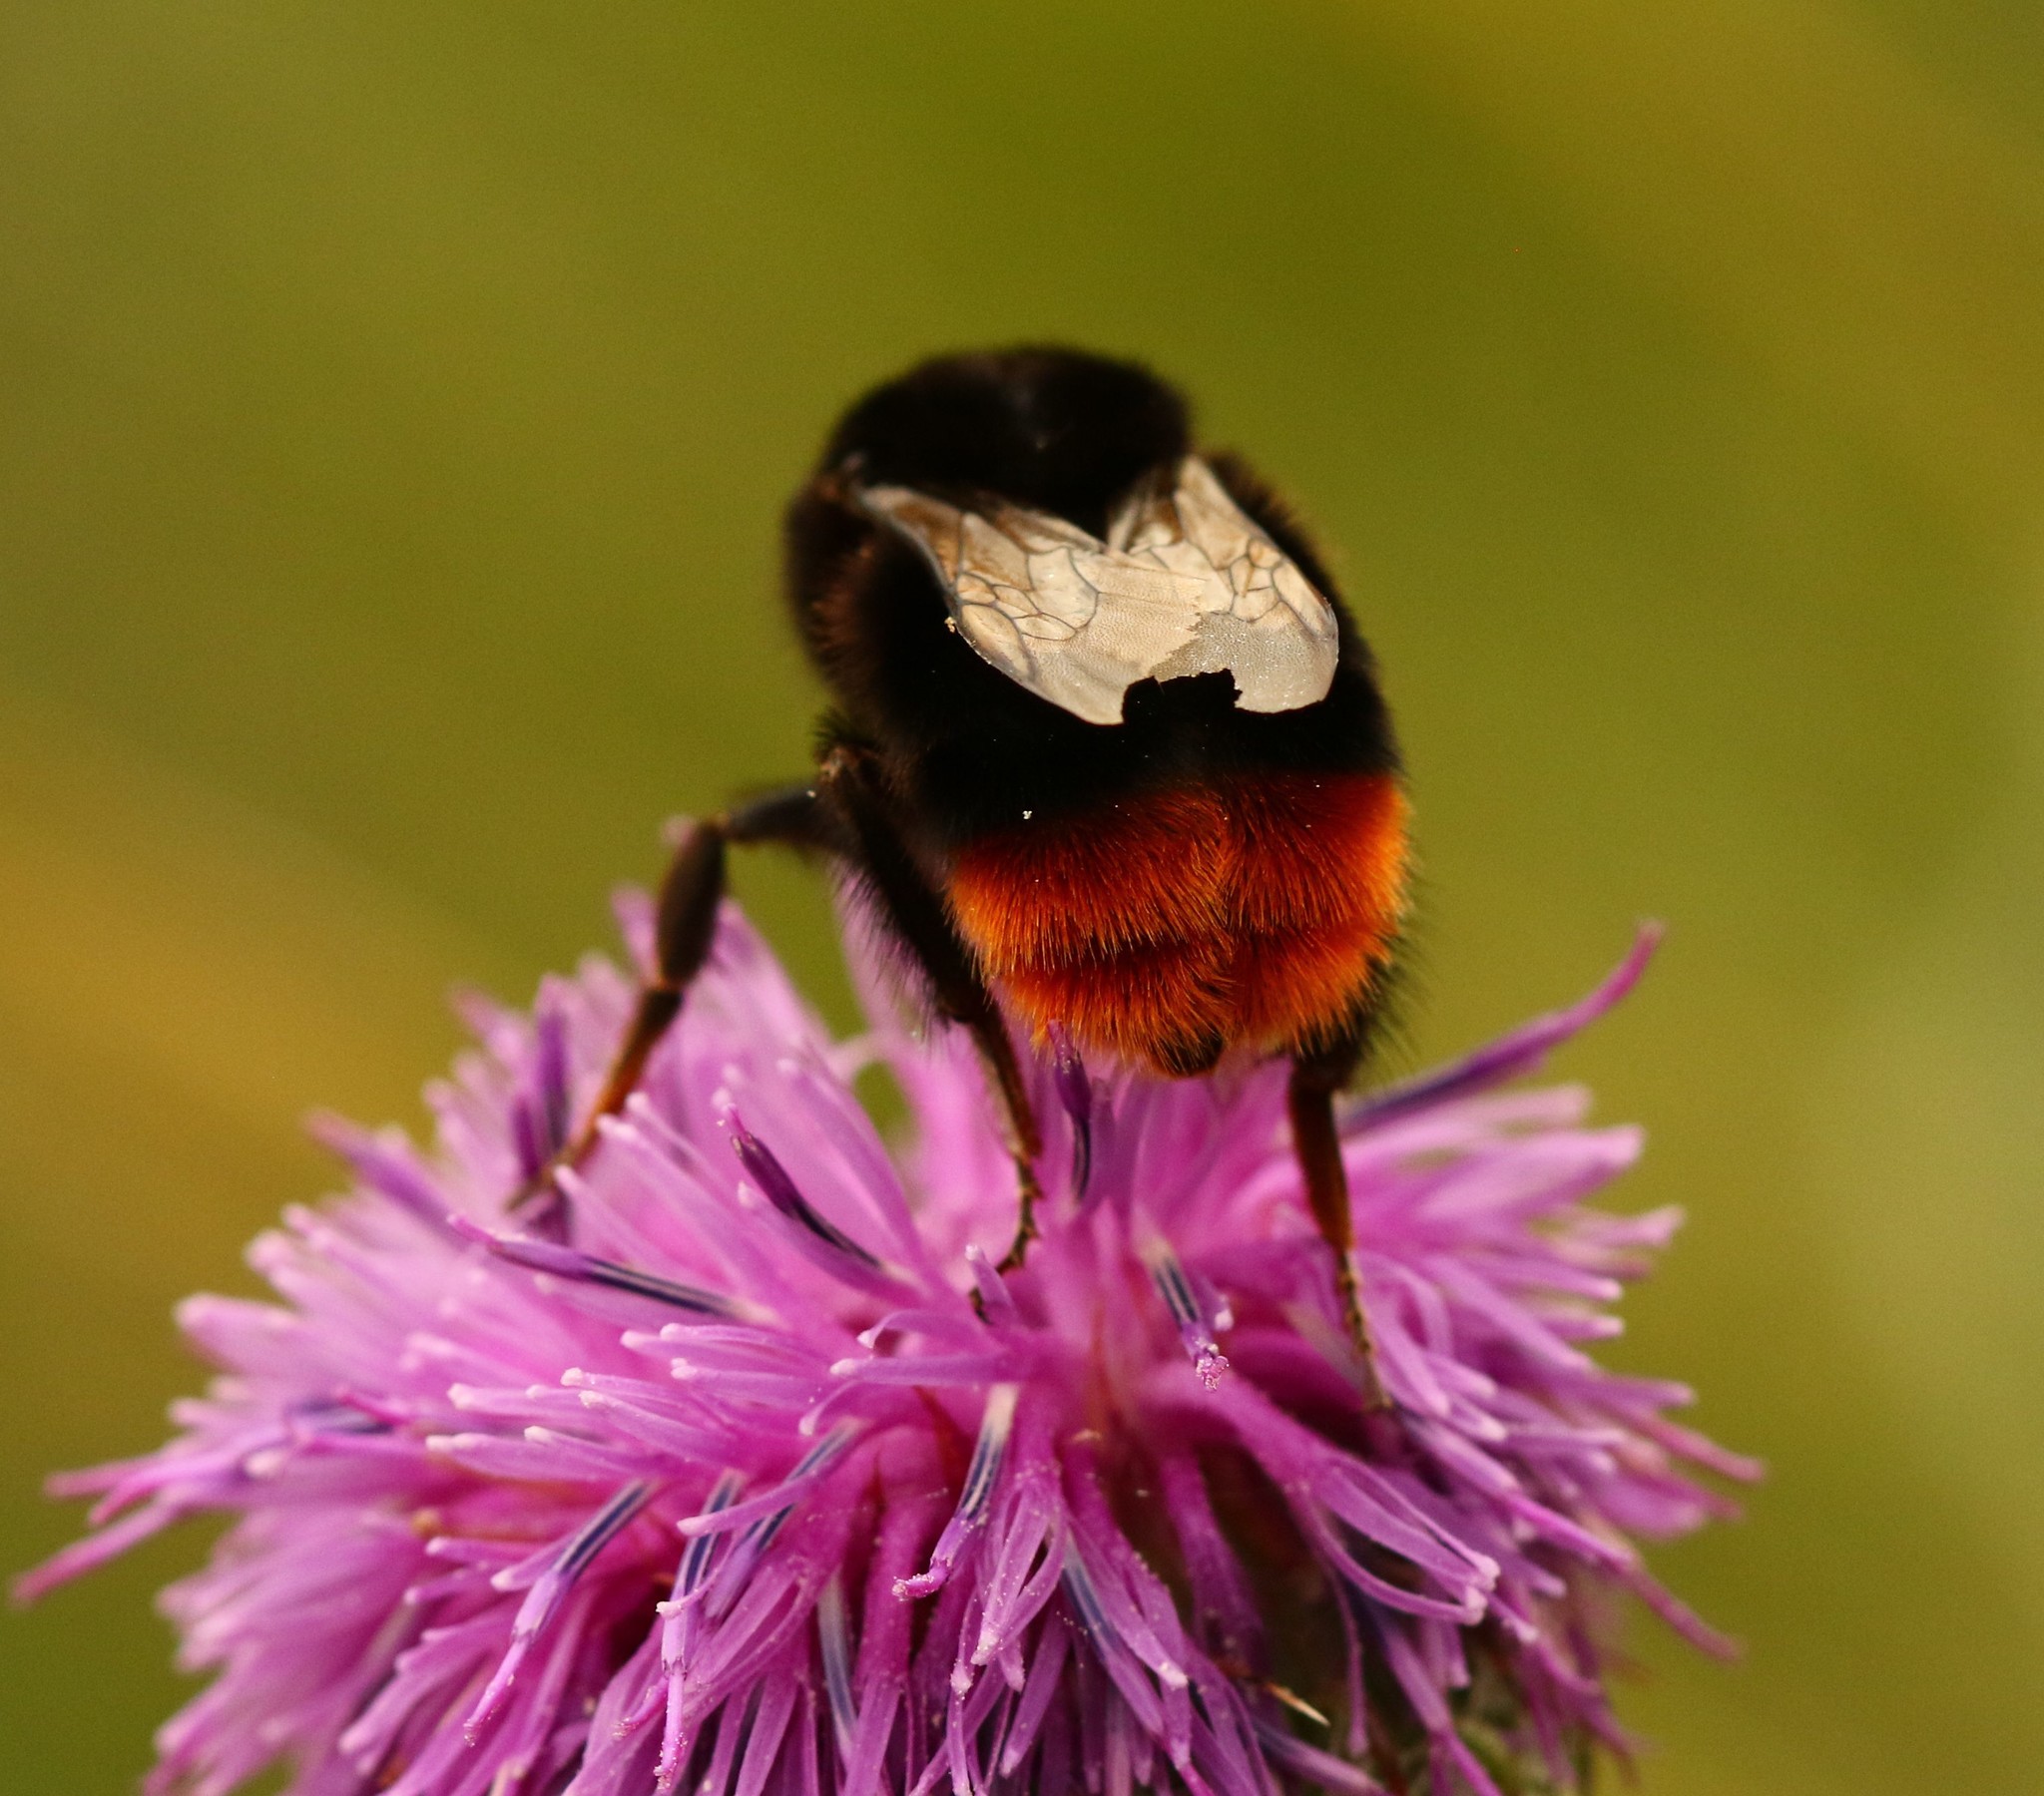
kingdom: Animalia
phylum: Arthropoda
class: Insecta
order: Hymenoptera
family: Apidae
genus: Bombus
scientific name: Bombus lapidarius
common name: Large red-tailed humble-bee
